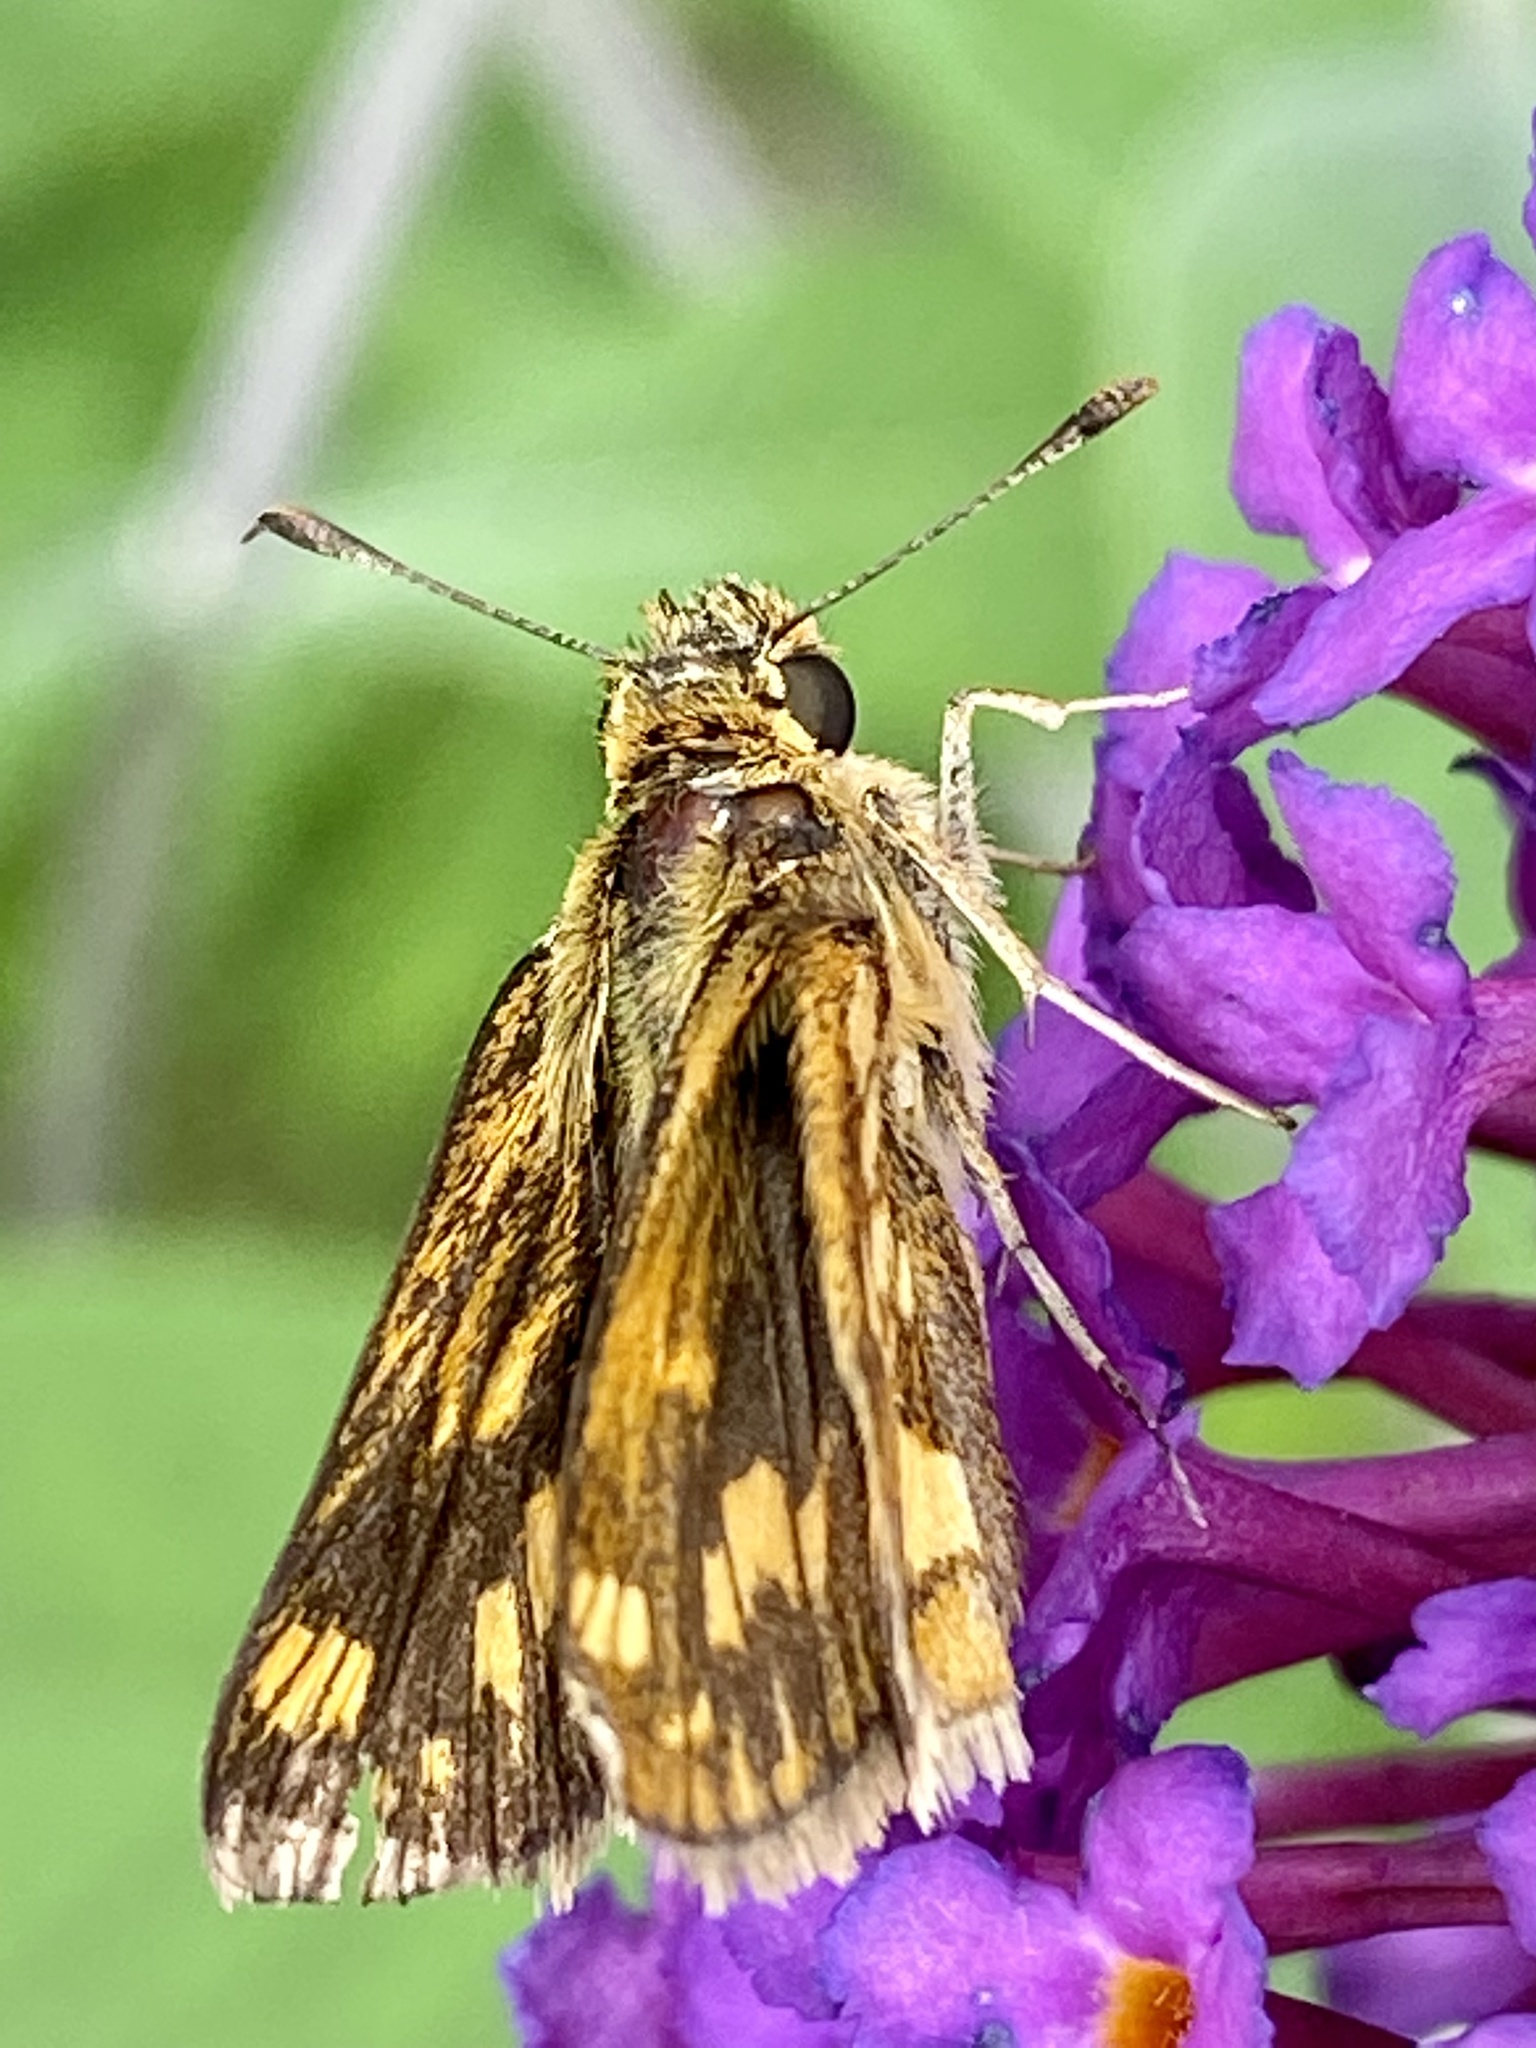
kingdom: Animalia
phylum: Arthropoda
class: Insecta
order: Lepidoptera
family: Hesperiidae
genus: Polites
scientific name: Polites coras
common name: Peck's skipper
